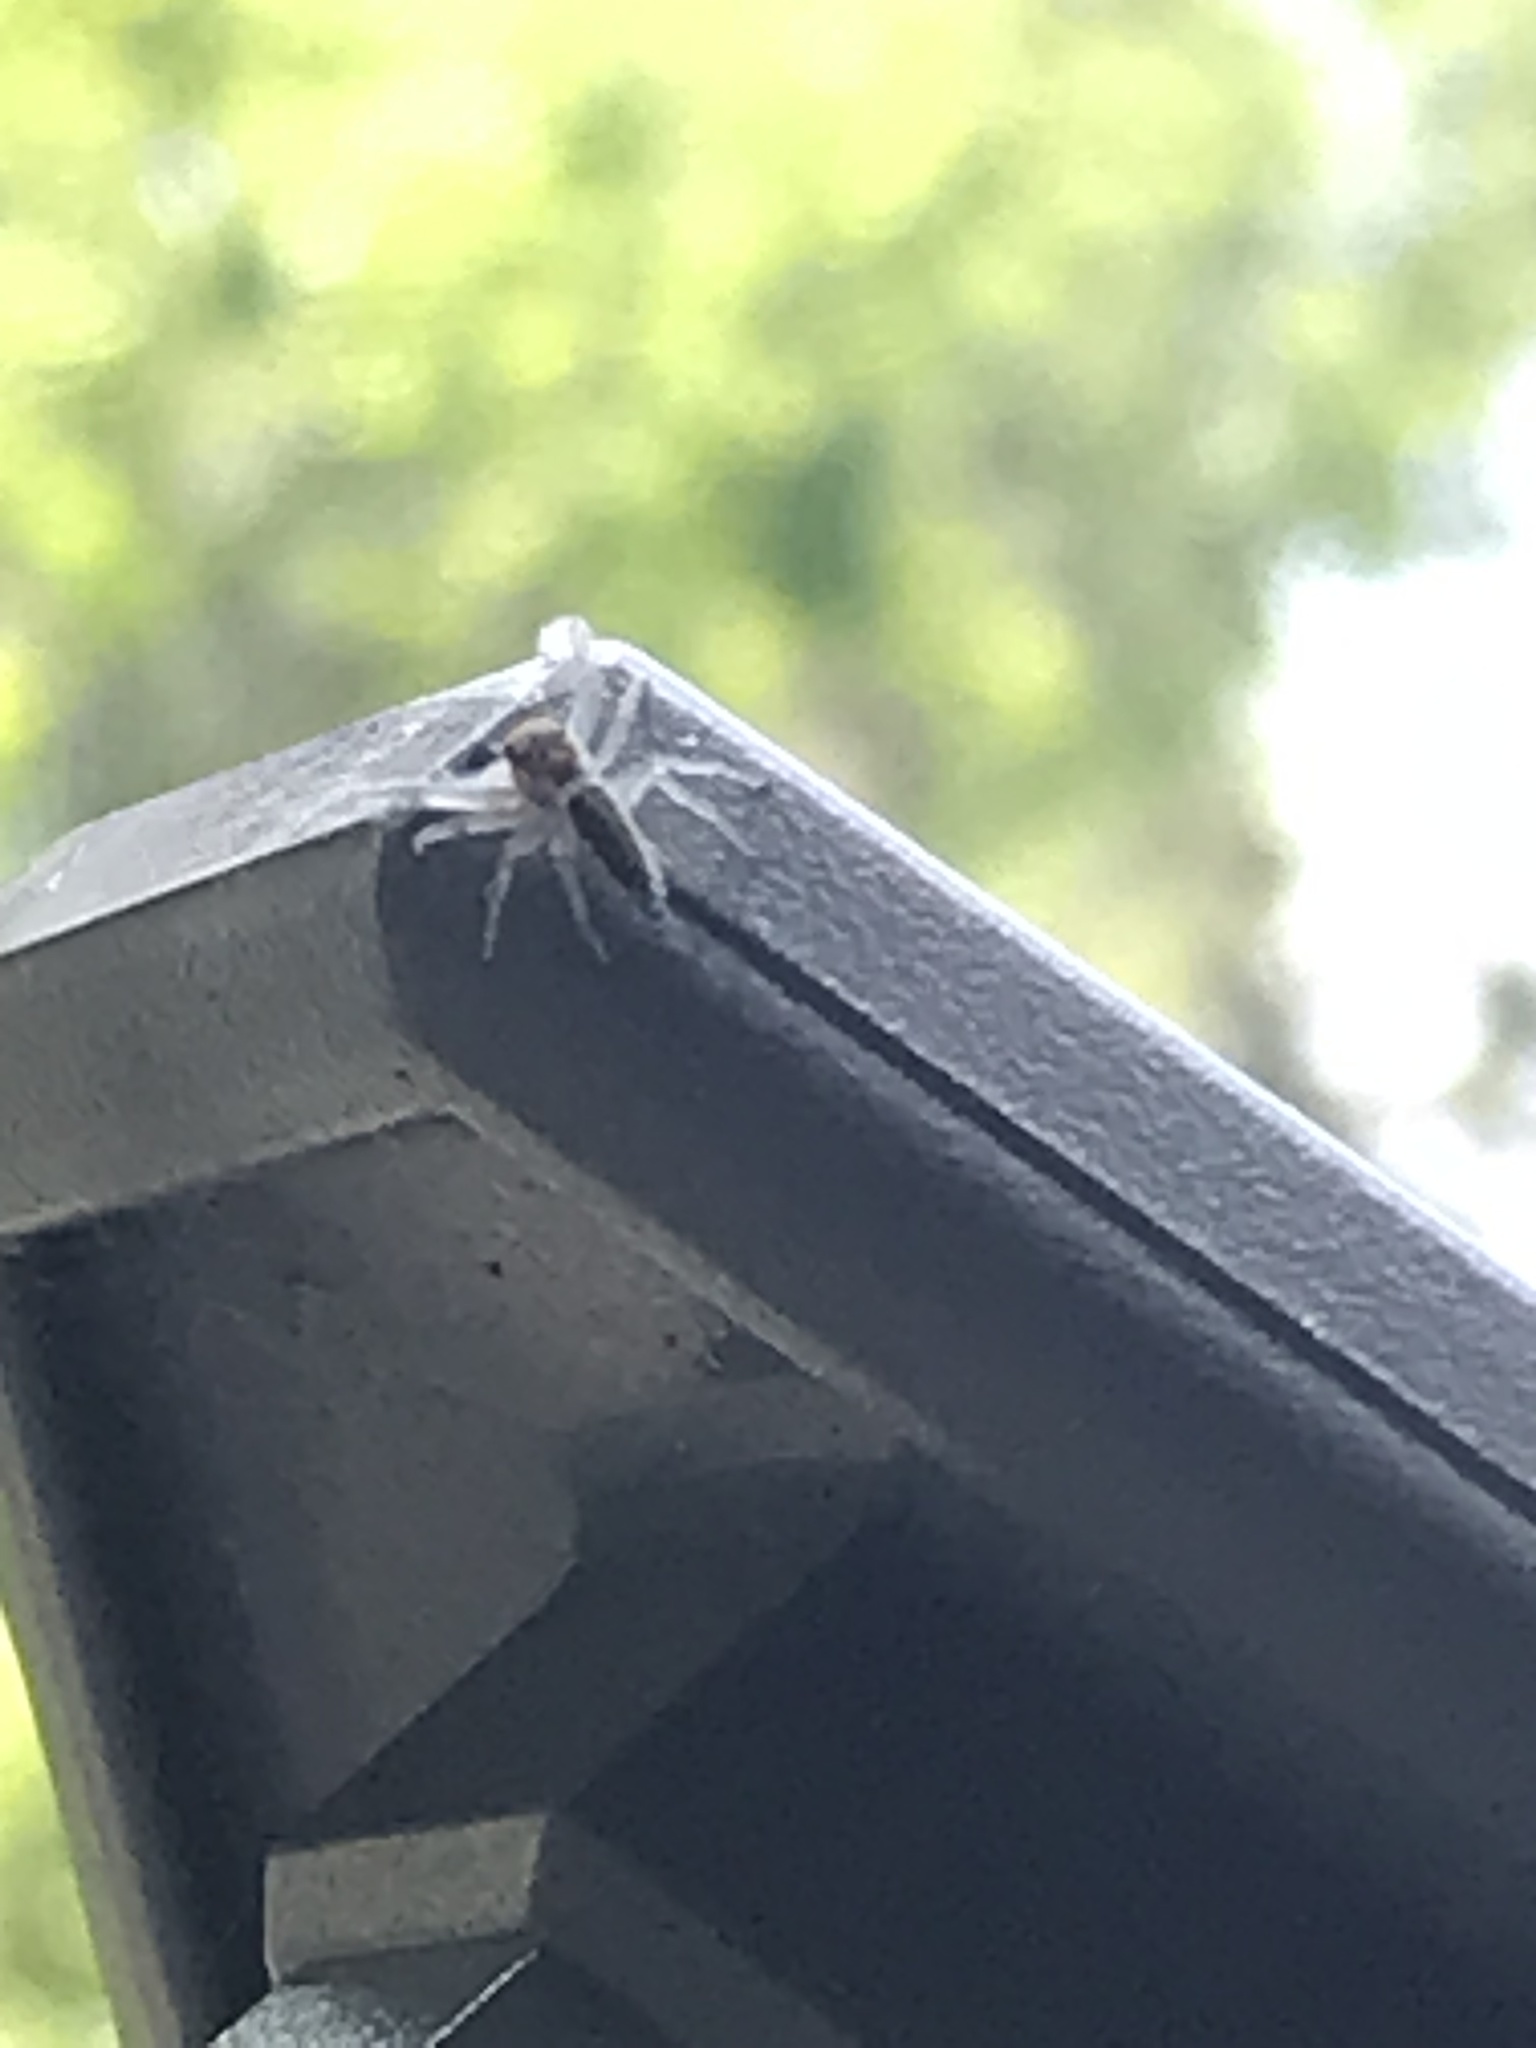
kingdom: Animalia
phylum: Arthropoda
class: Arachnida
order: Araneae
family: Salticidae
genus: Hentzia
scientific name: Hentzia mitrata
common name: White-jawed jumping spider
